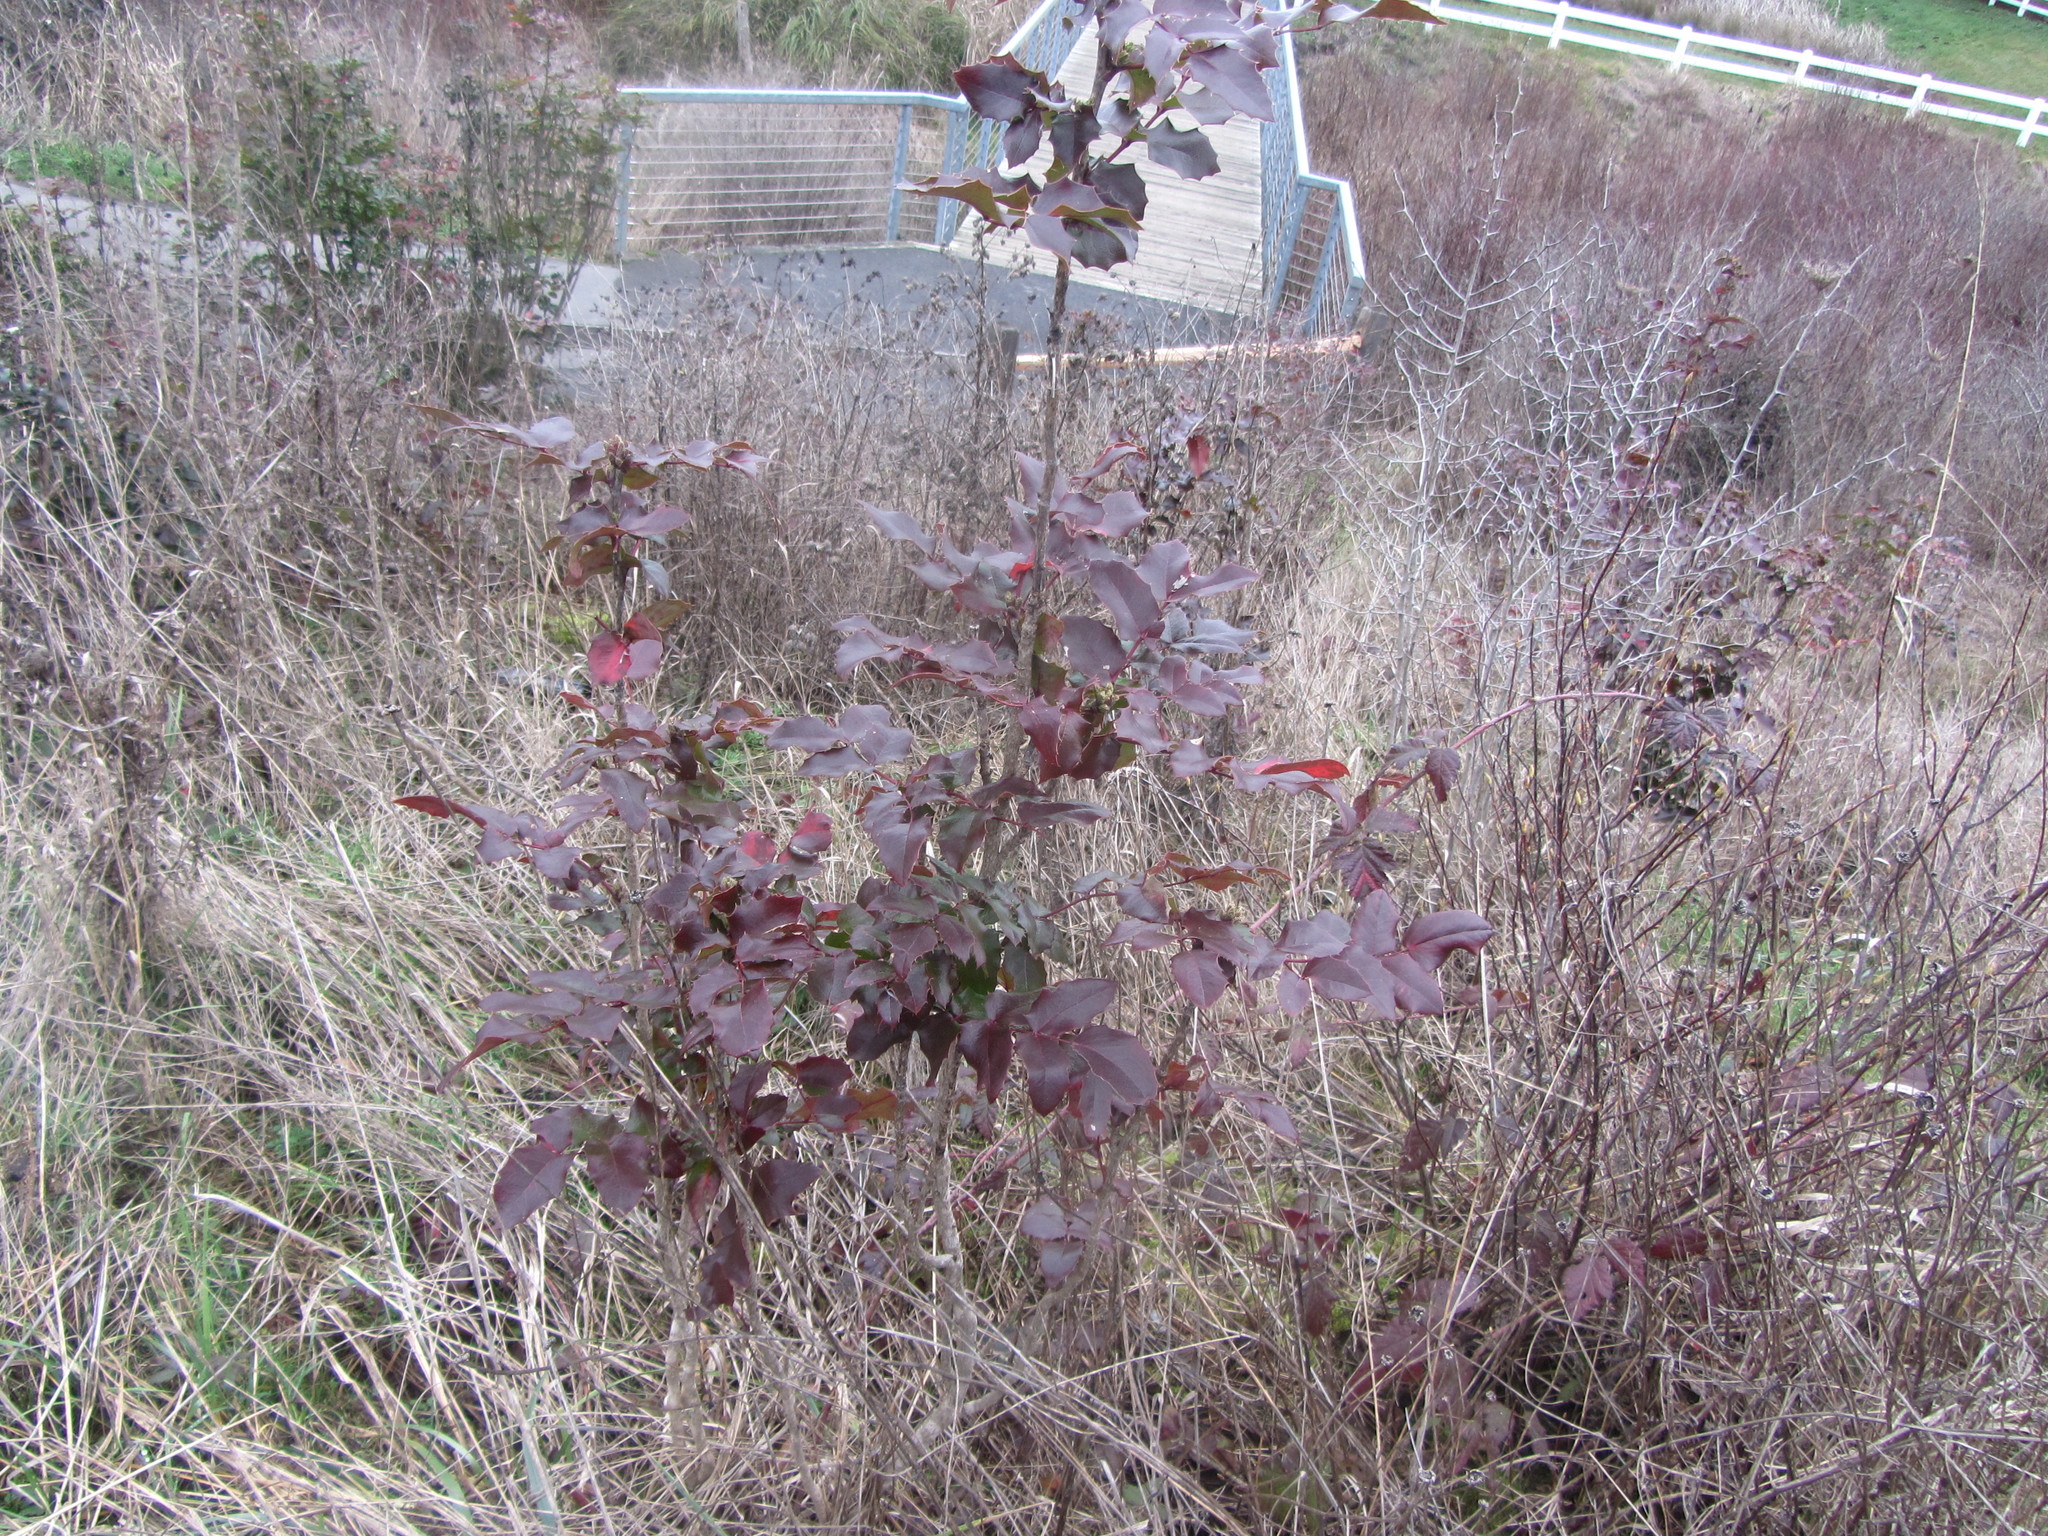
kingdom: Plantae
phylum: Tracheophyta
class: Magnoliopsida
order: Ranunculales
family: Berberidaceae
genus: Mahonia
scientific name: Mahonia aquifolium
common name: Oregon-grape
